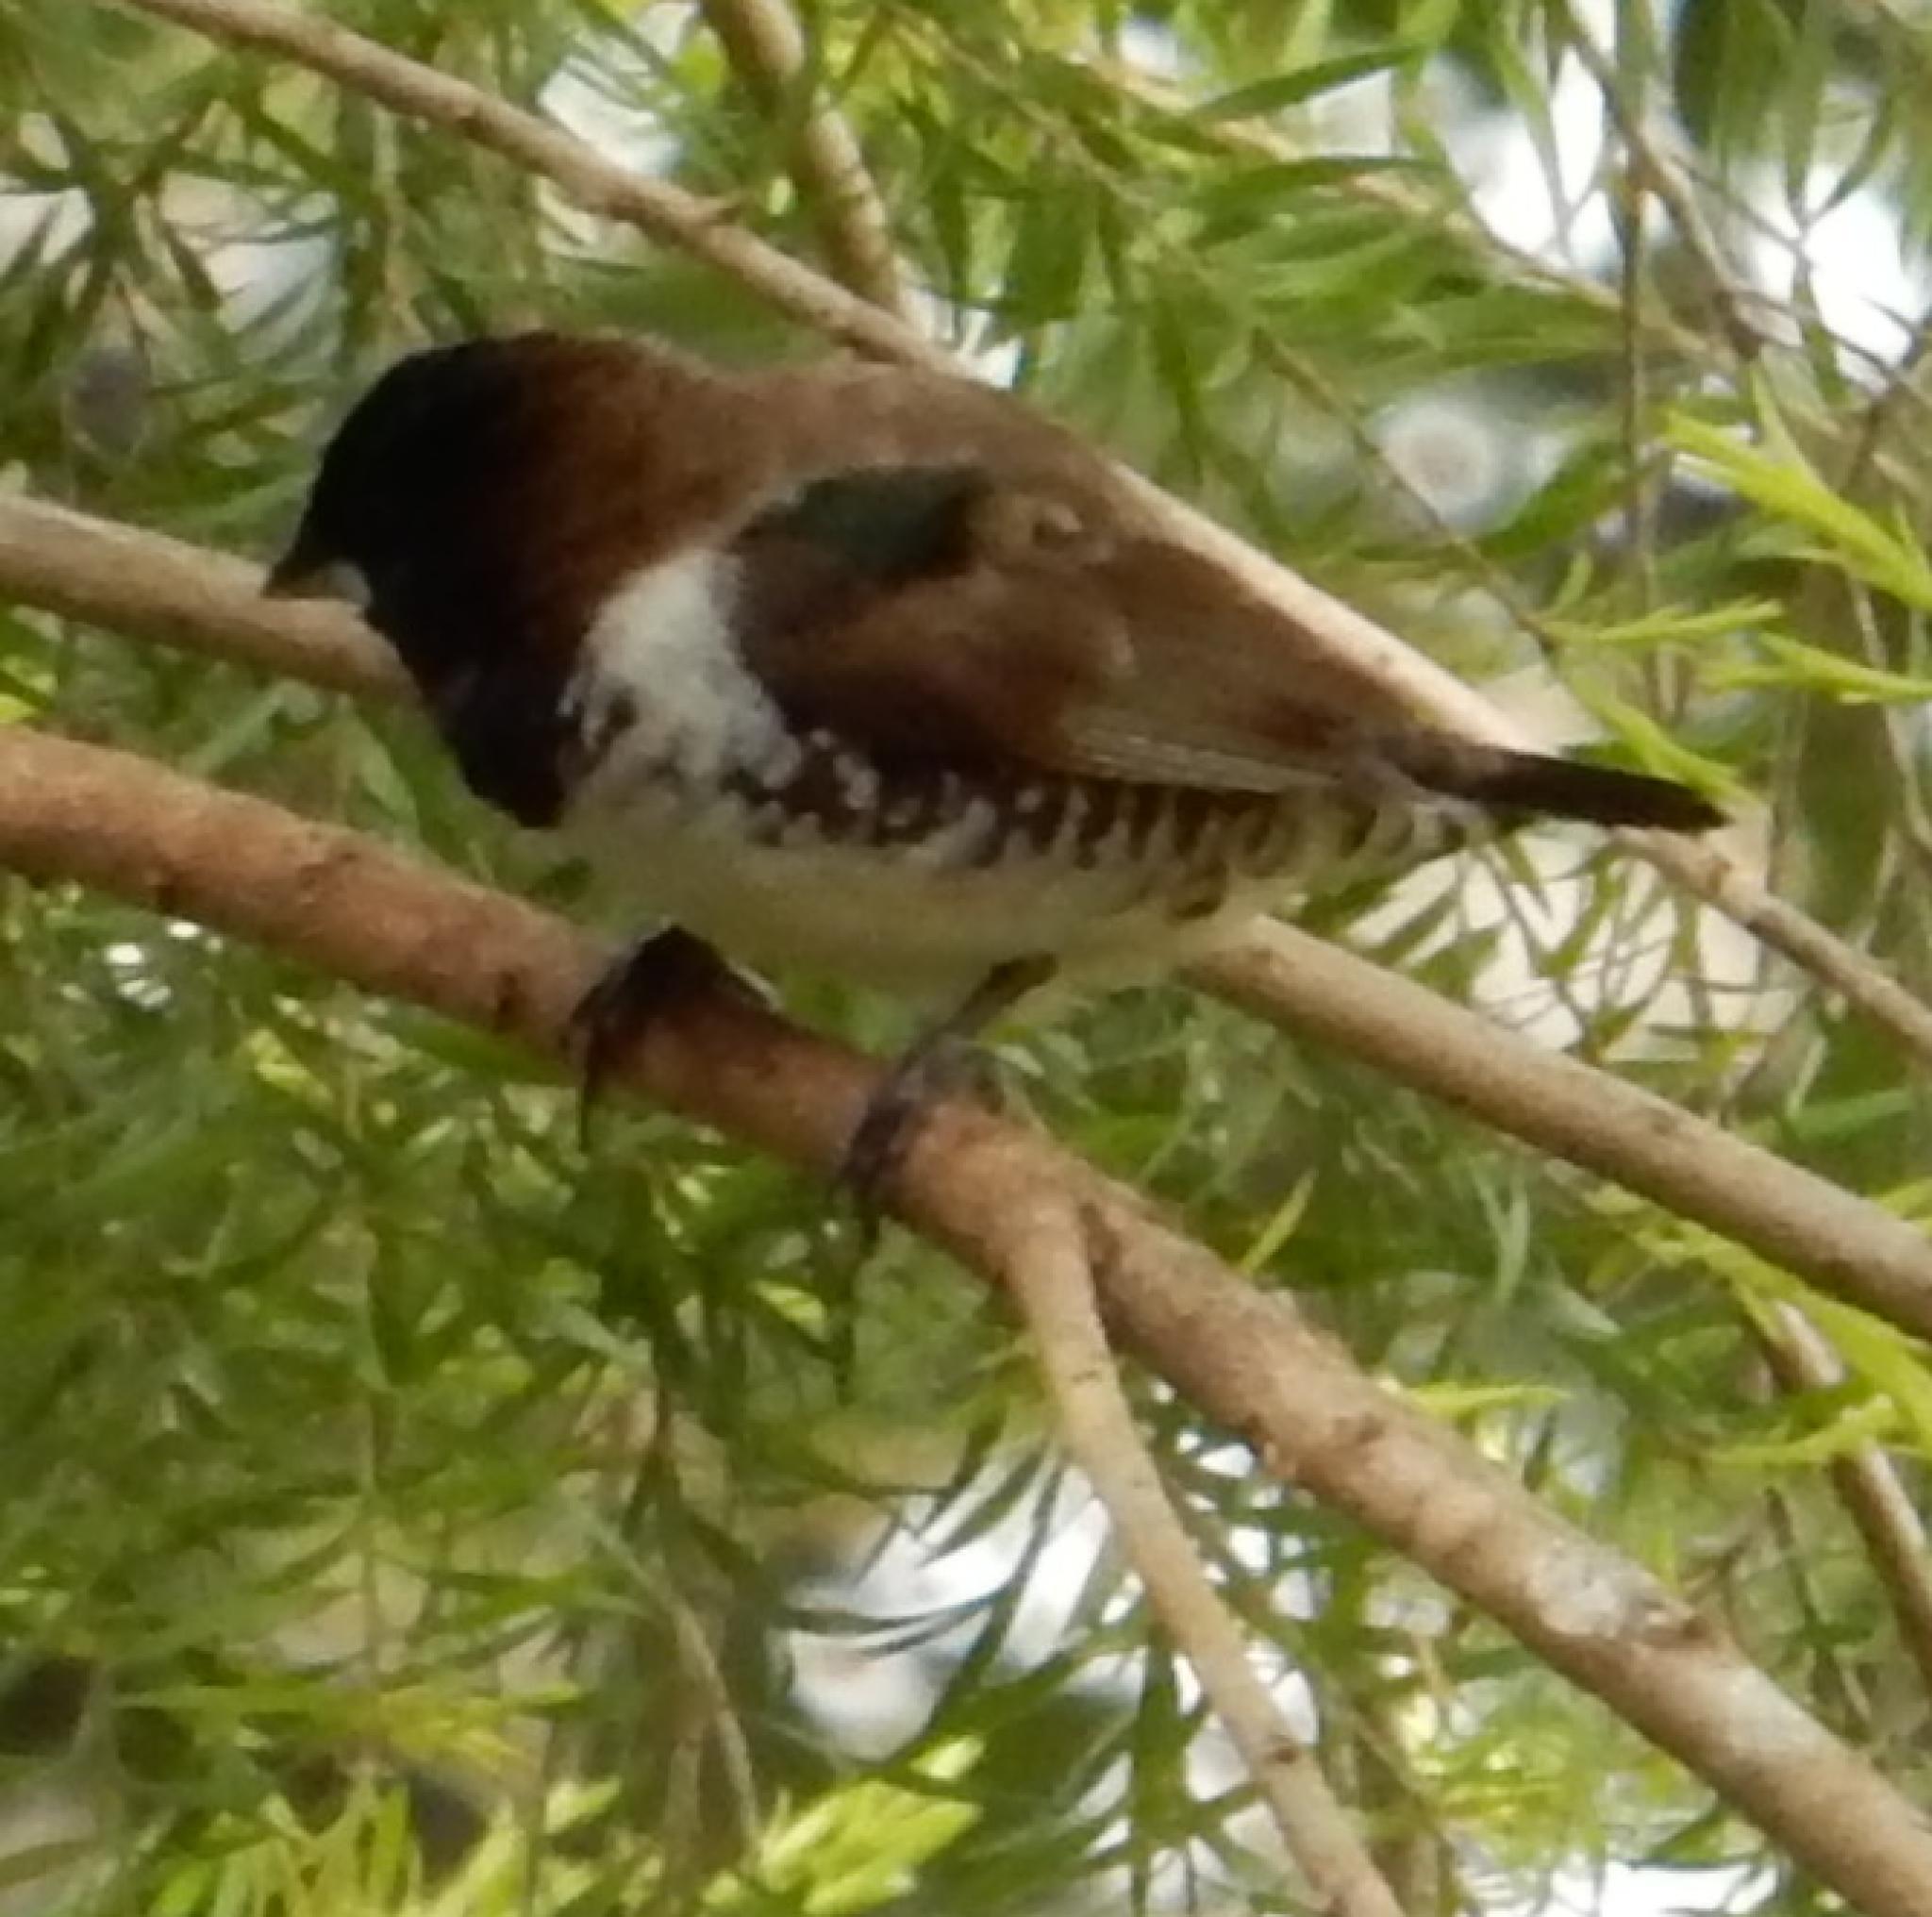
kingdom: Animalia
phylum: Chordata
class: Aves
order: Passeriformes
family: Estrildidae
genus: Lonchura
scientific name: Lonchura cucullata
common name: Bronze mannikin
